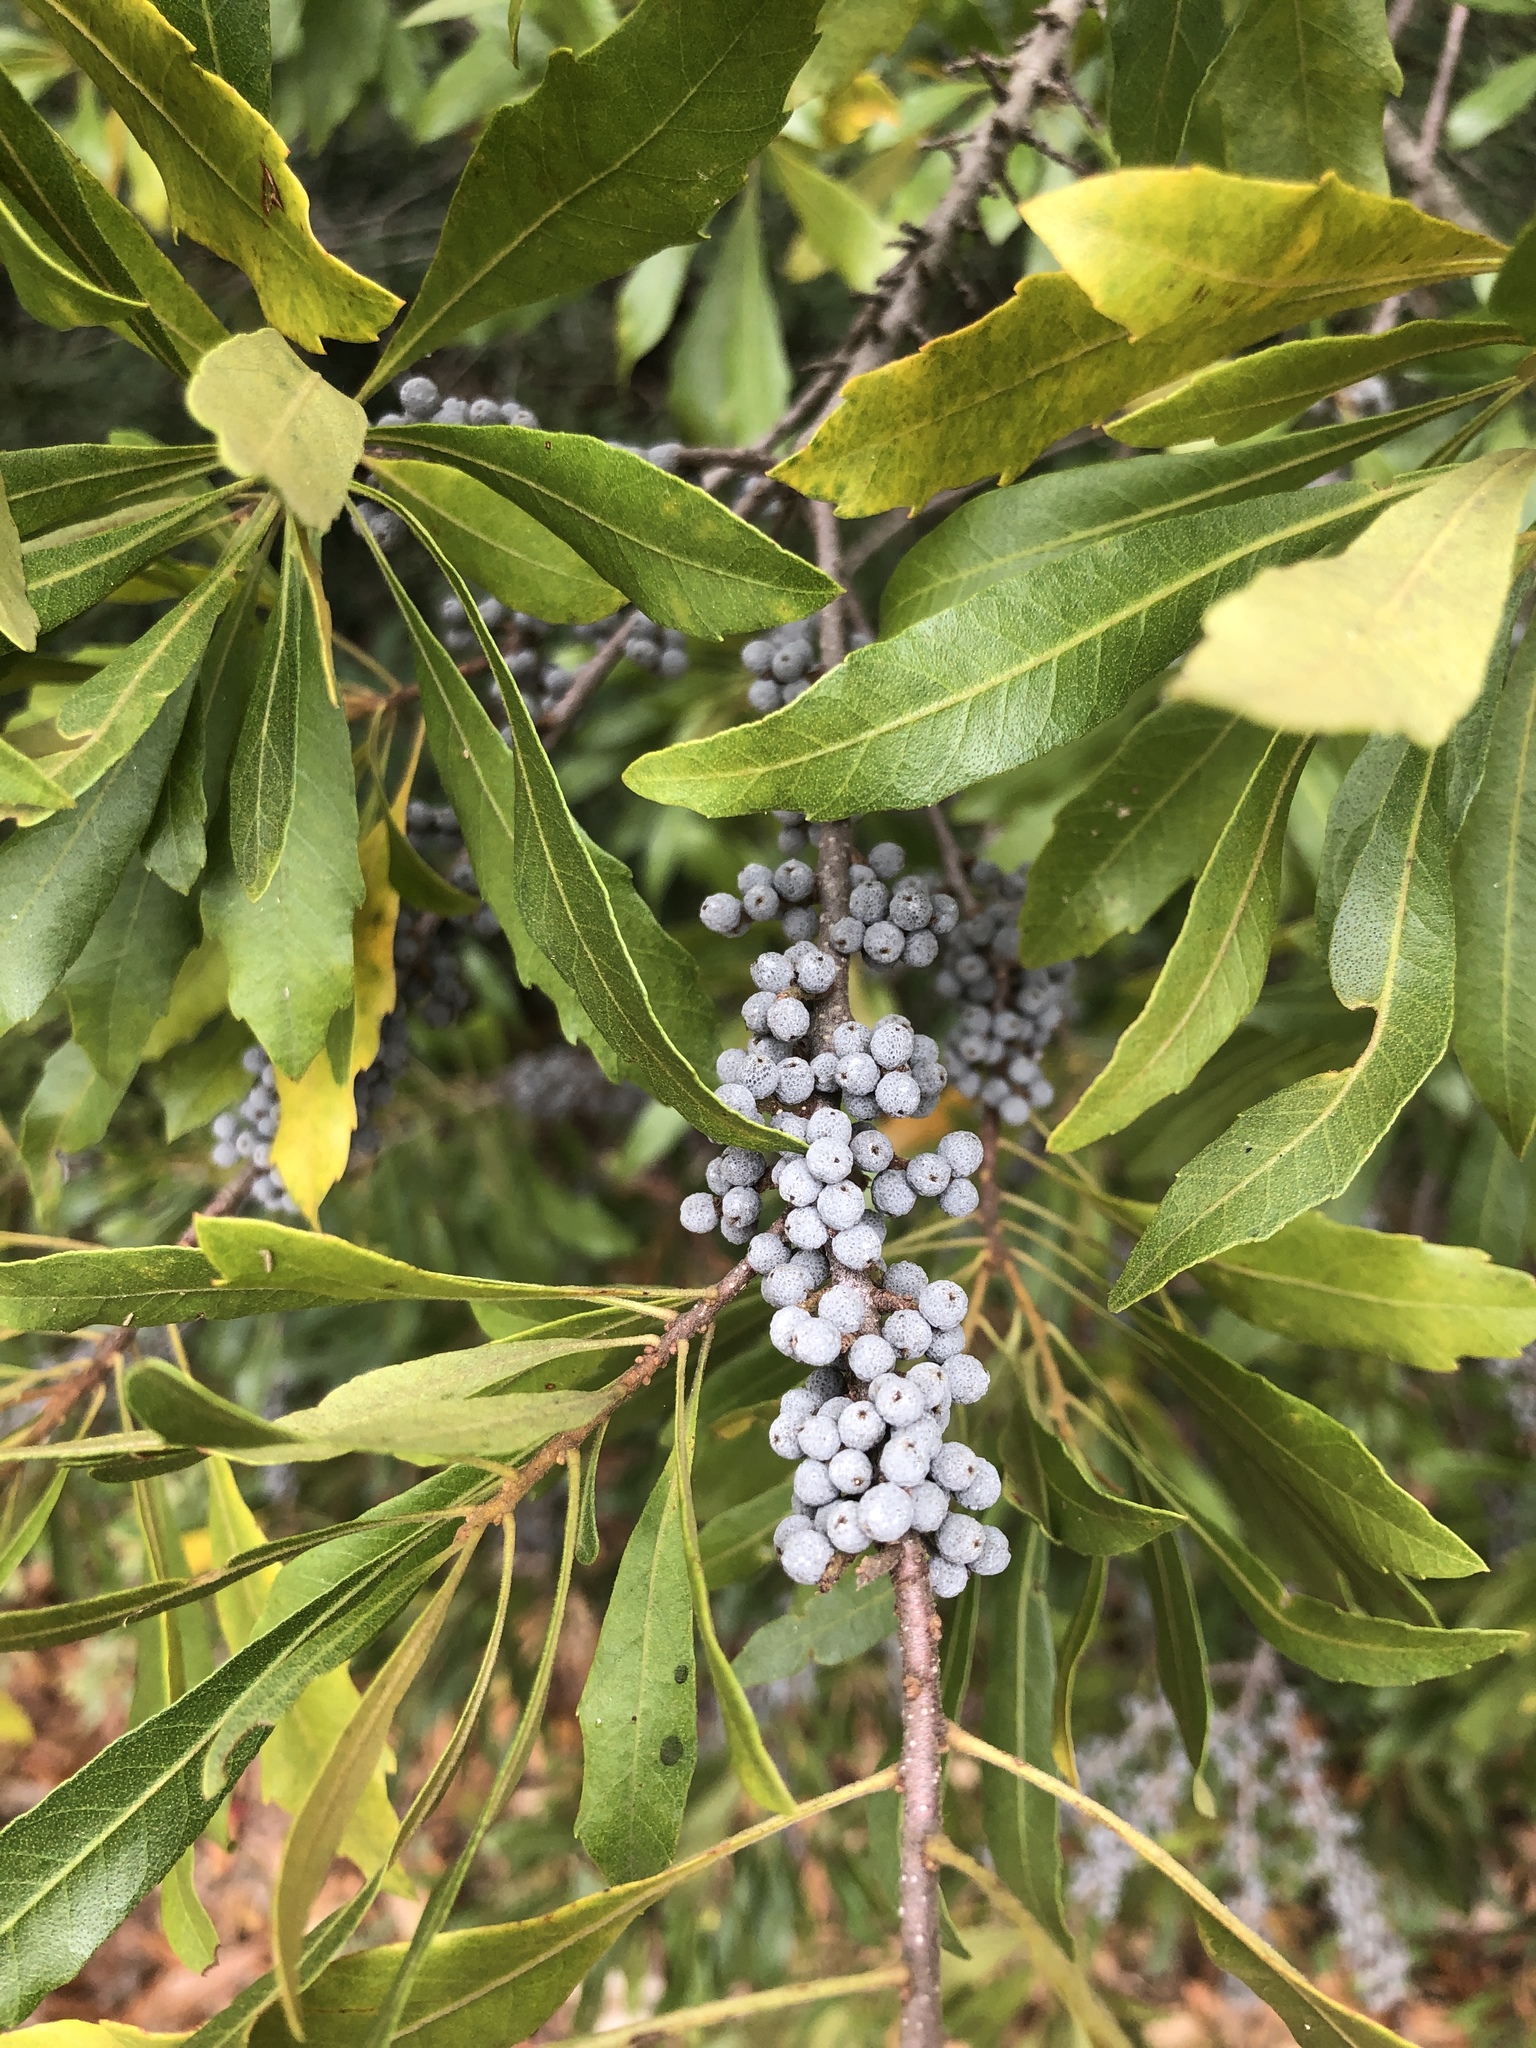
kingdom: Plantae
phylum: Tracheophyta
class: Magnoliopsida
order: Fagales
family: Myricaceae
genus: Morella
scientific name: Morella cerifera
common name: Wax myrtle
